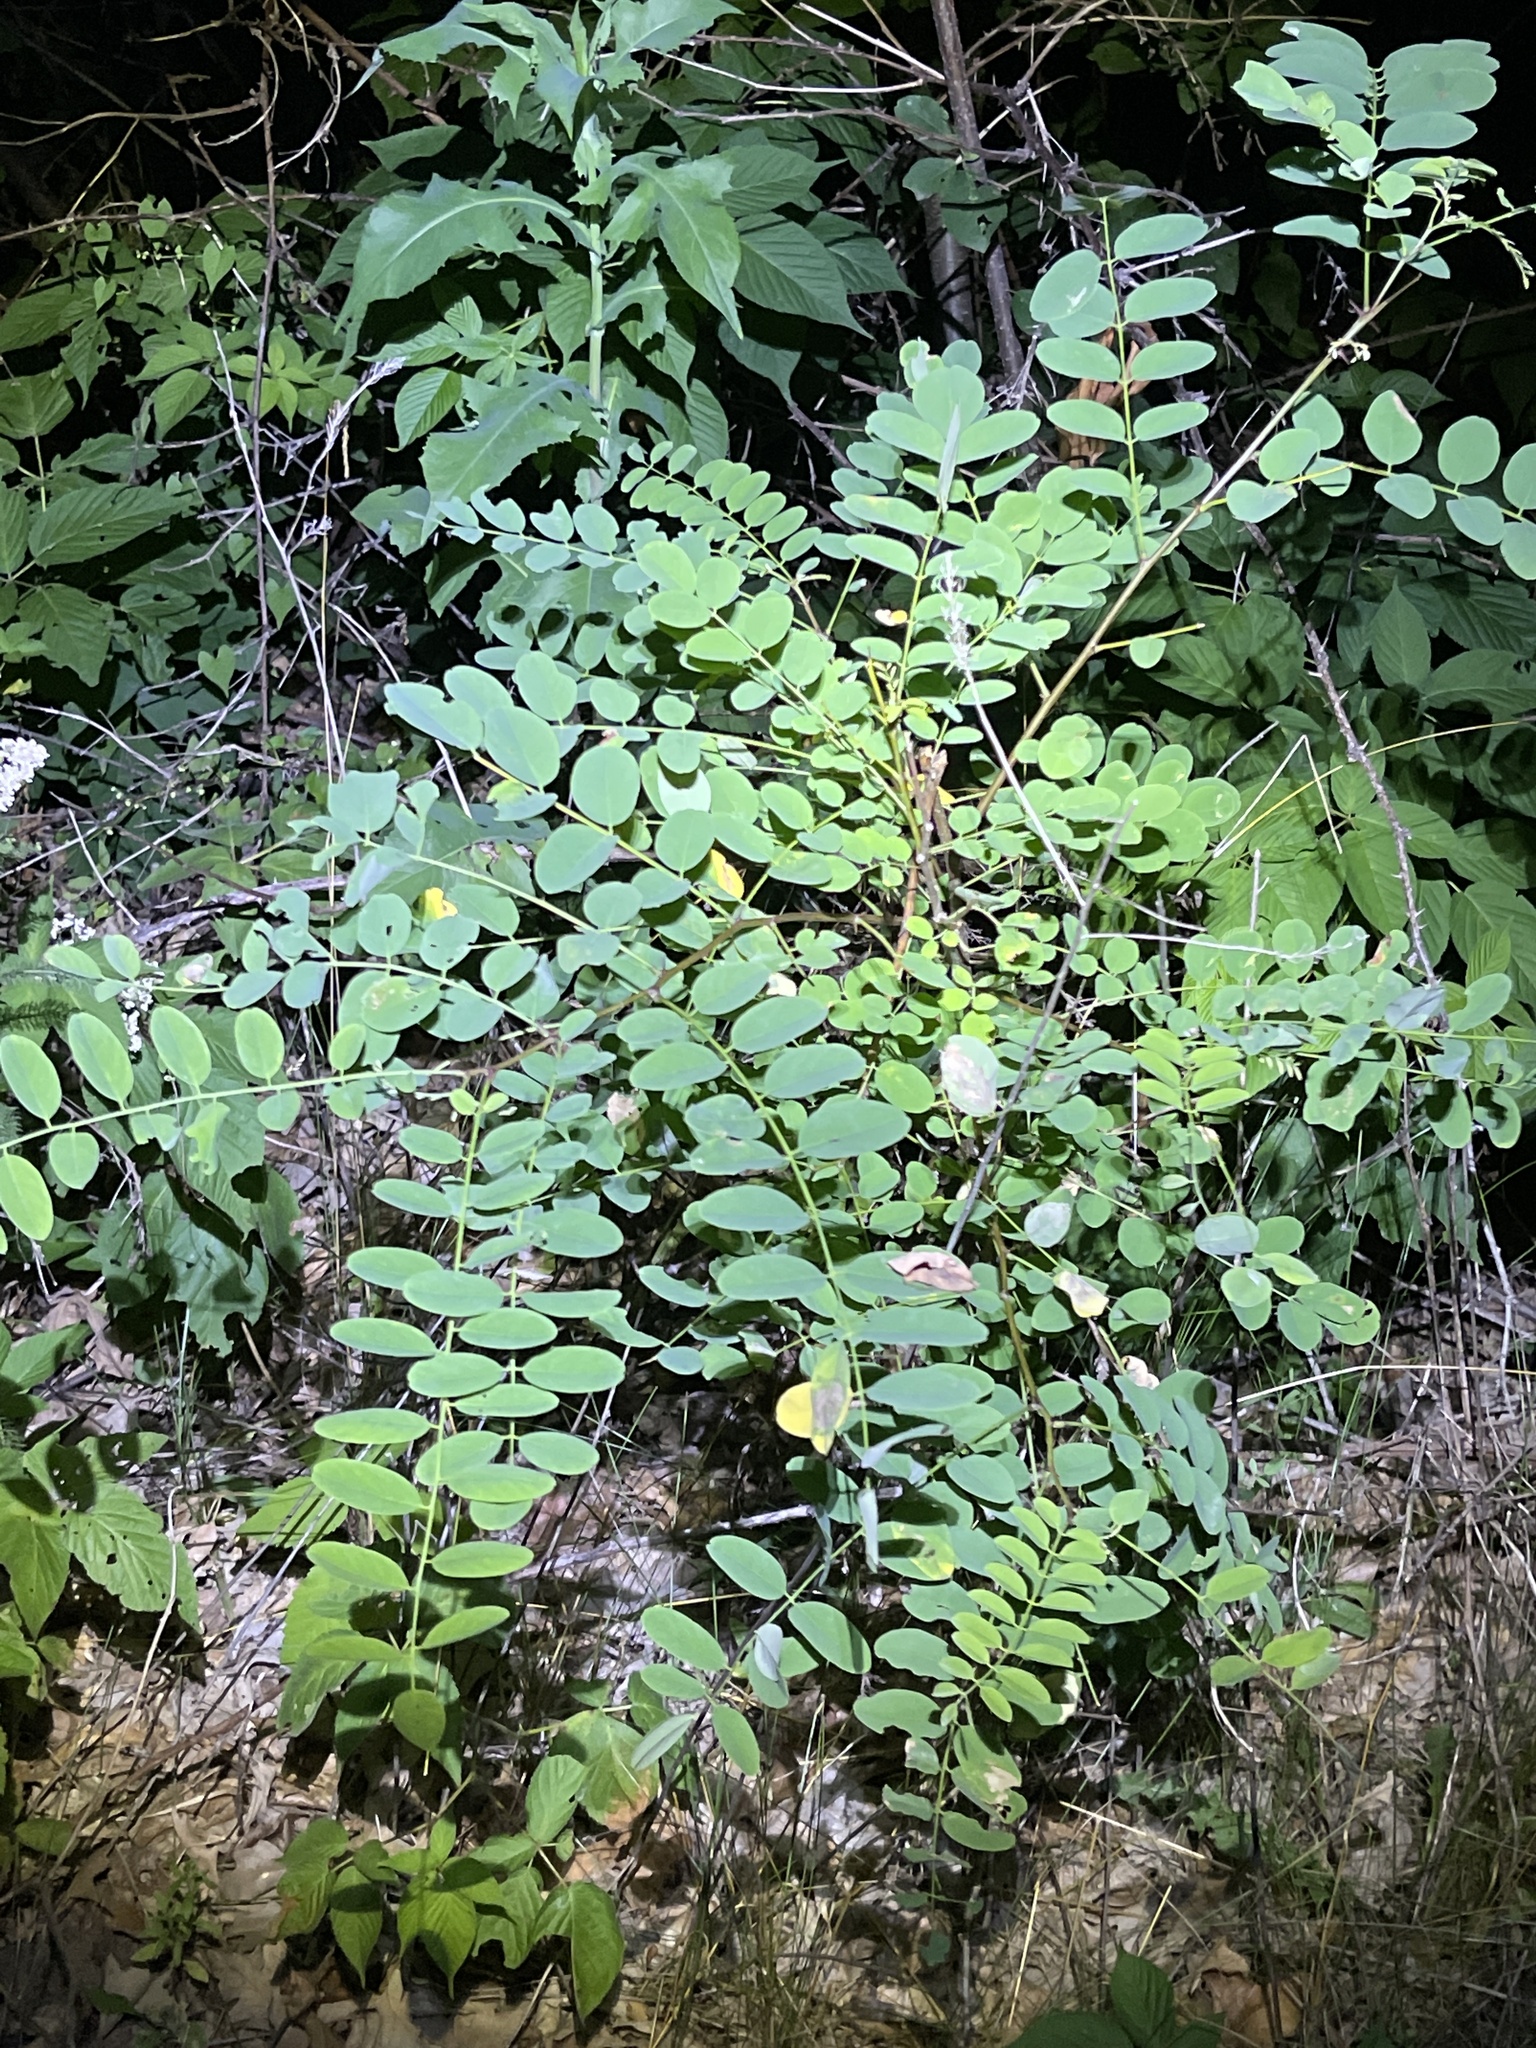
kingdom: Plantae
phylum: Tracheophyta
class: Magnoliopsida
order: Fabales
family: Fabaceae
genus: Robinia
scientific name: Robinia pseudoacacia
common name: Black locust
